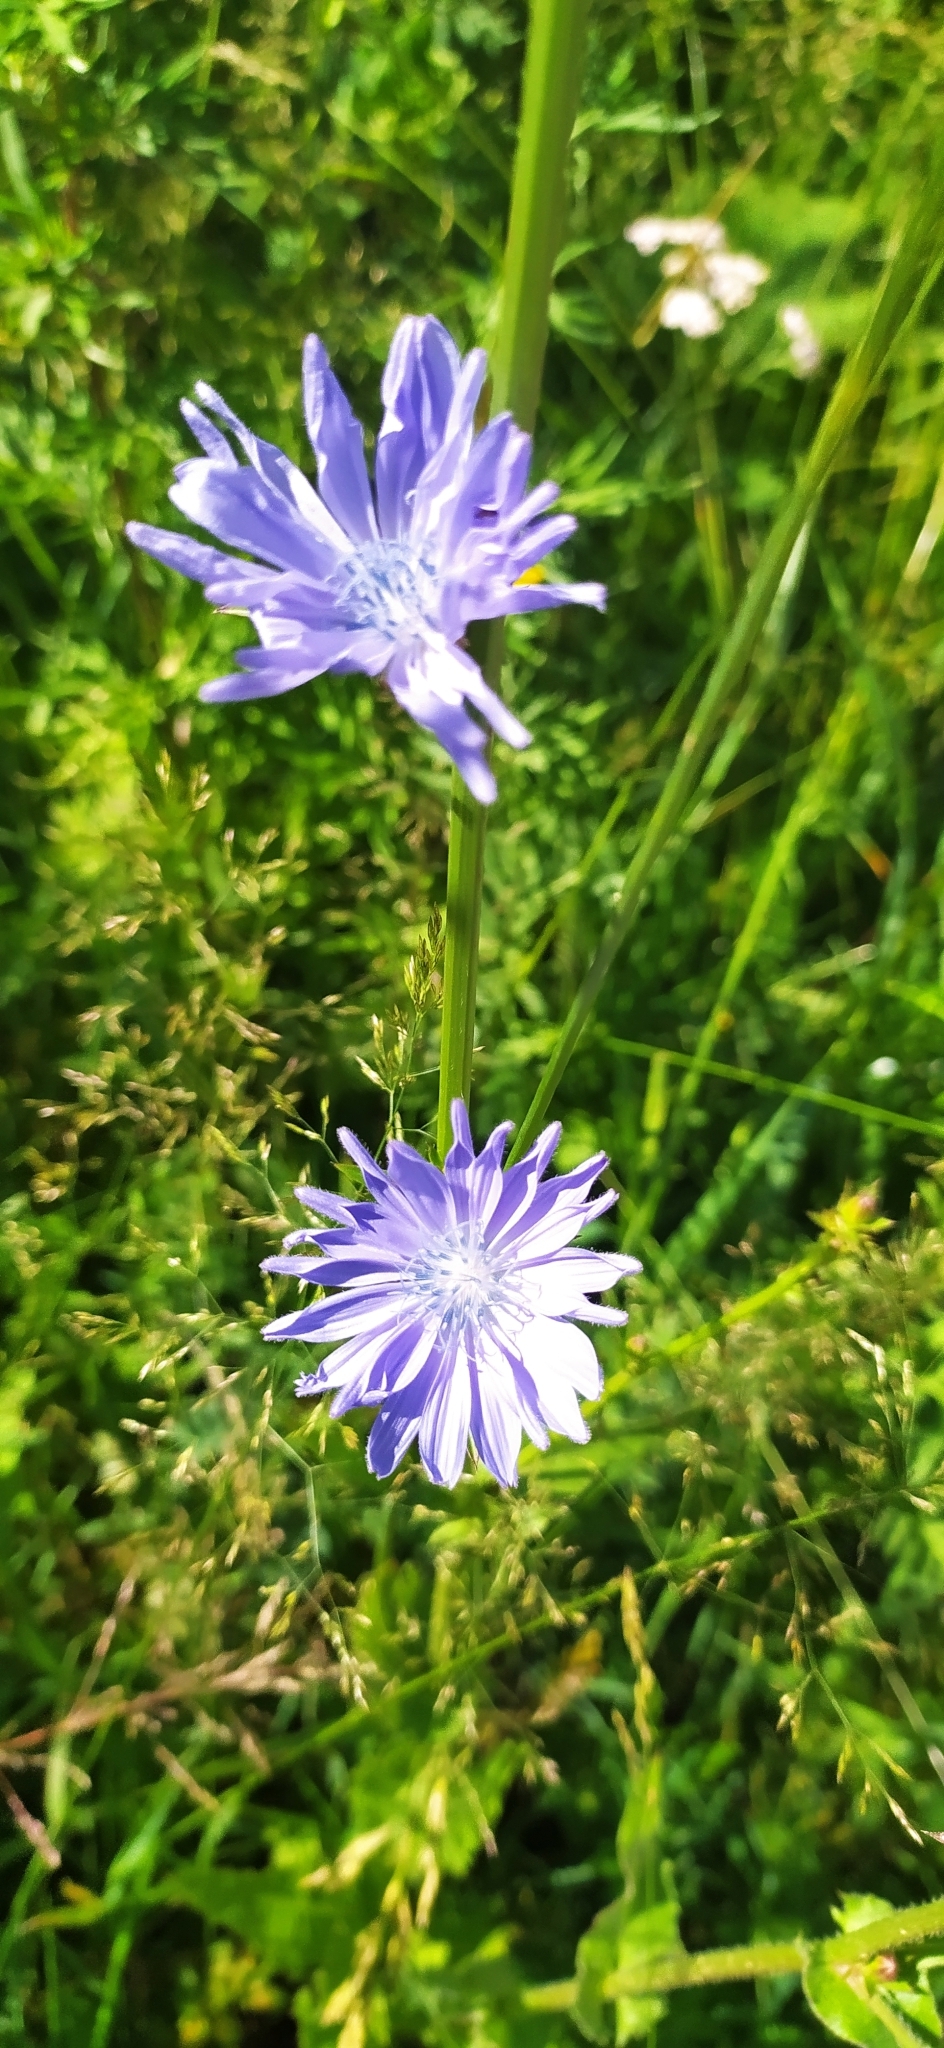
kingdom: Plantae
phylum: Tracheophyta
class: Magnoliopsida
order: Asterales
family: Asteraceae
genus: Cichorium
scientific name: Cichorium intybus
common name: Chicory
